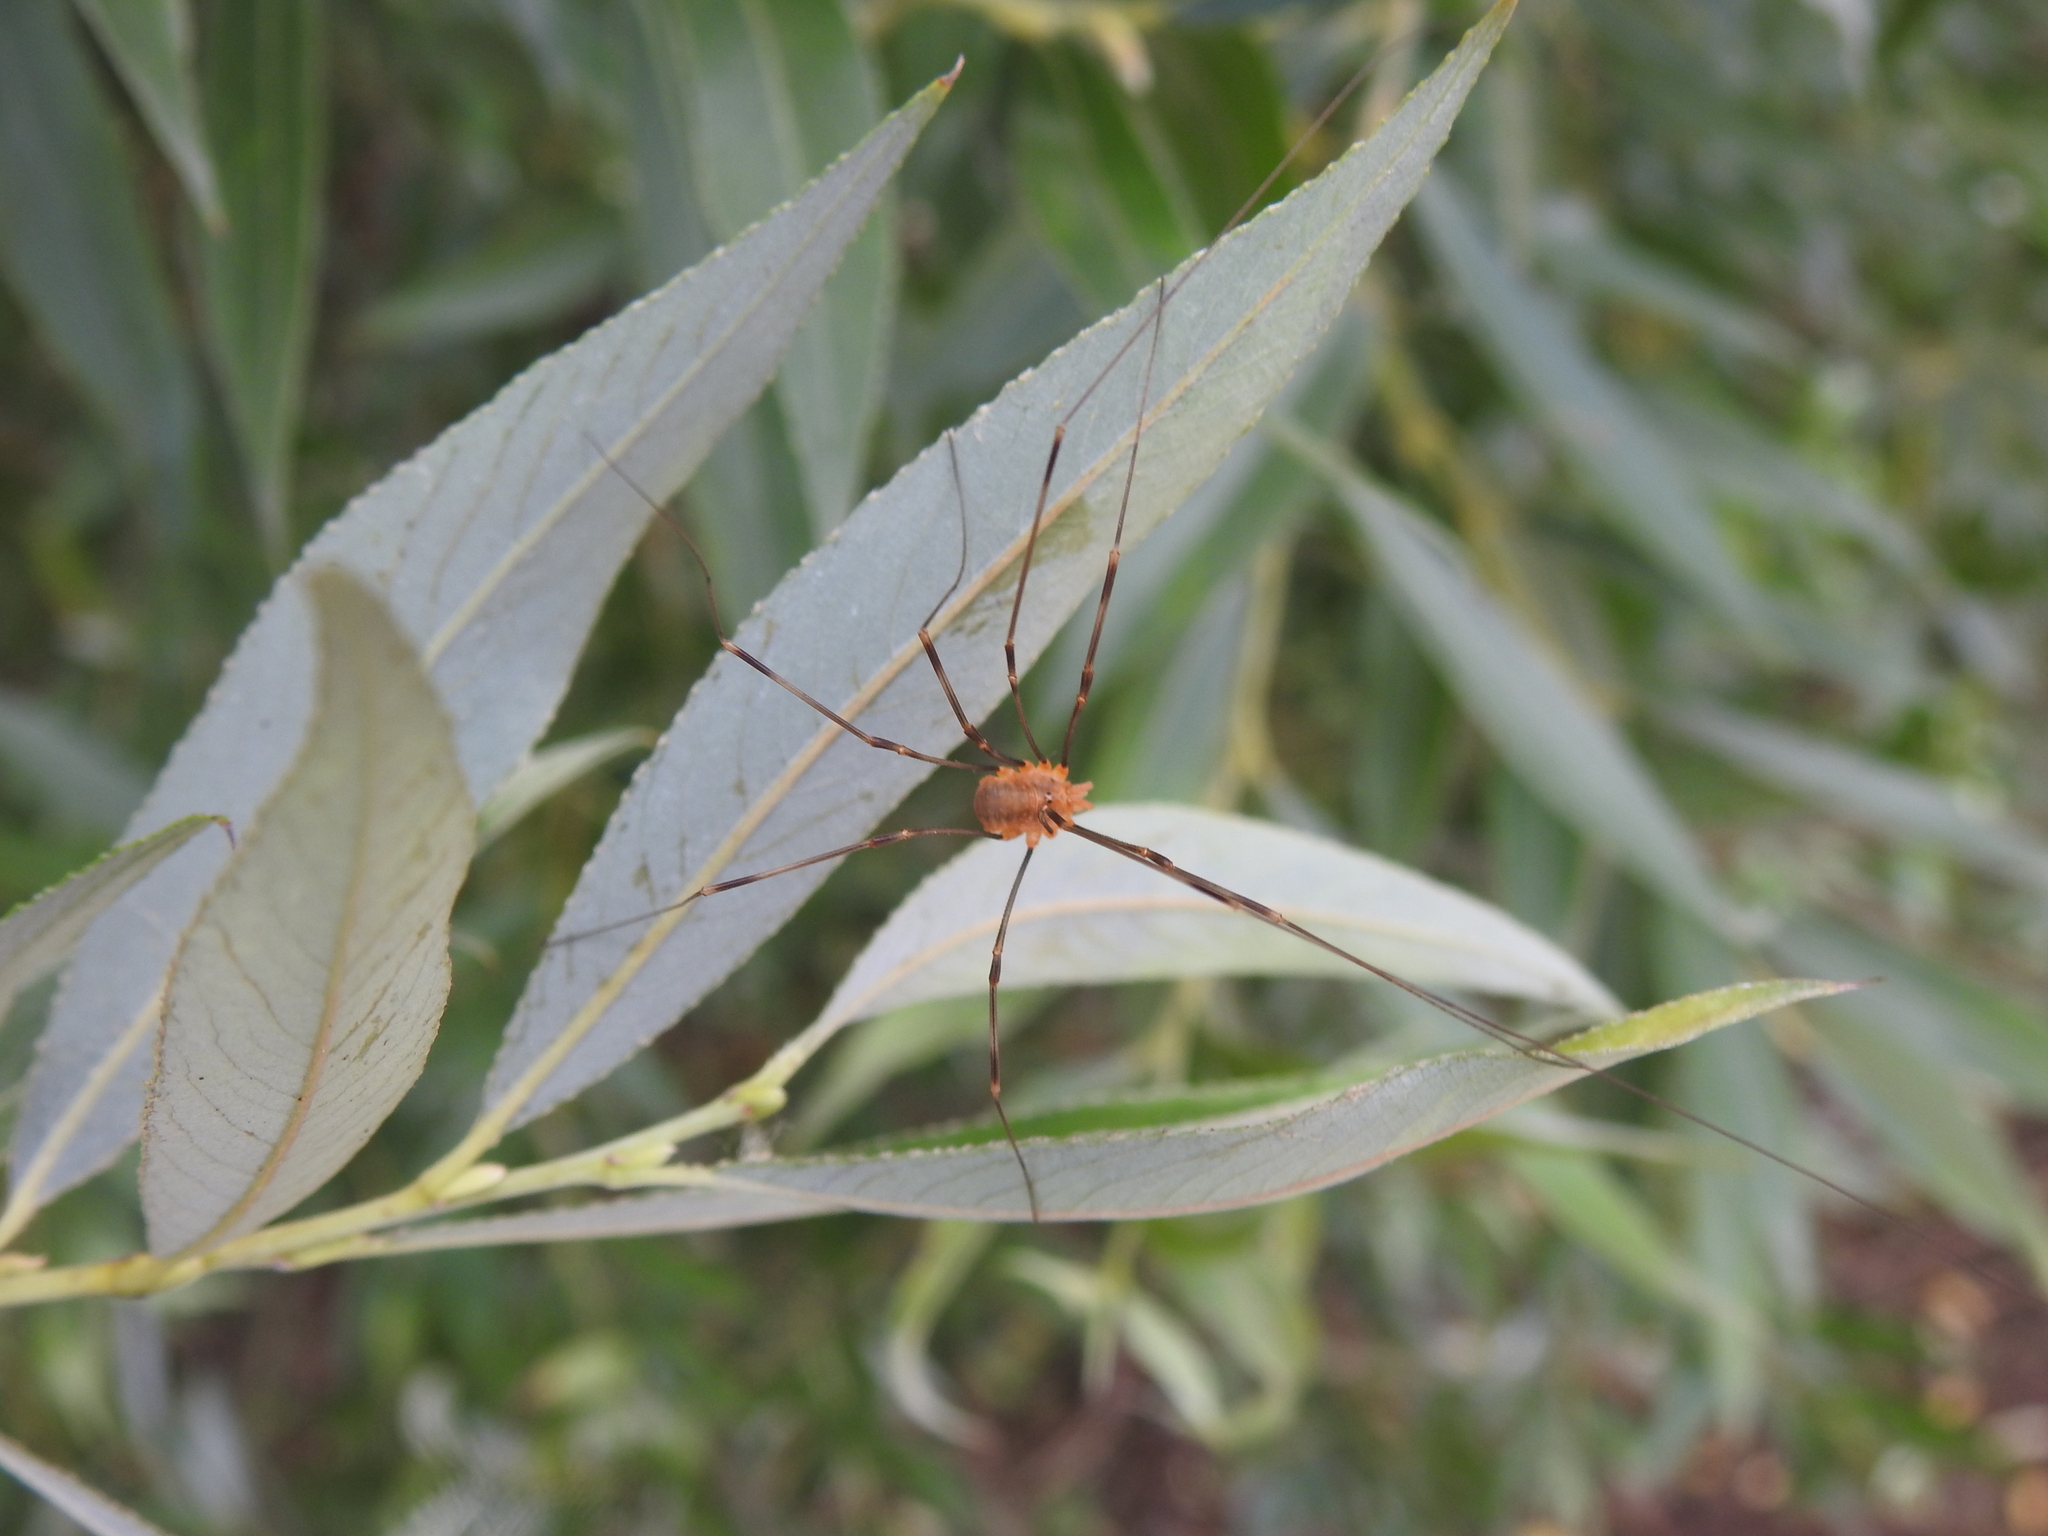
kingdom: Animalia
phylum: Arthropoda
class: Arachnida
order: Opiliones
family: Phalangiidae
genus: Opilio
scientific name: Opilio canestrinii
